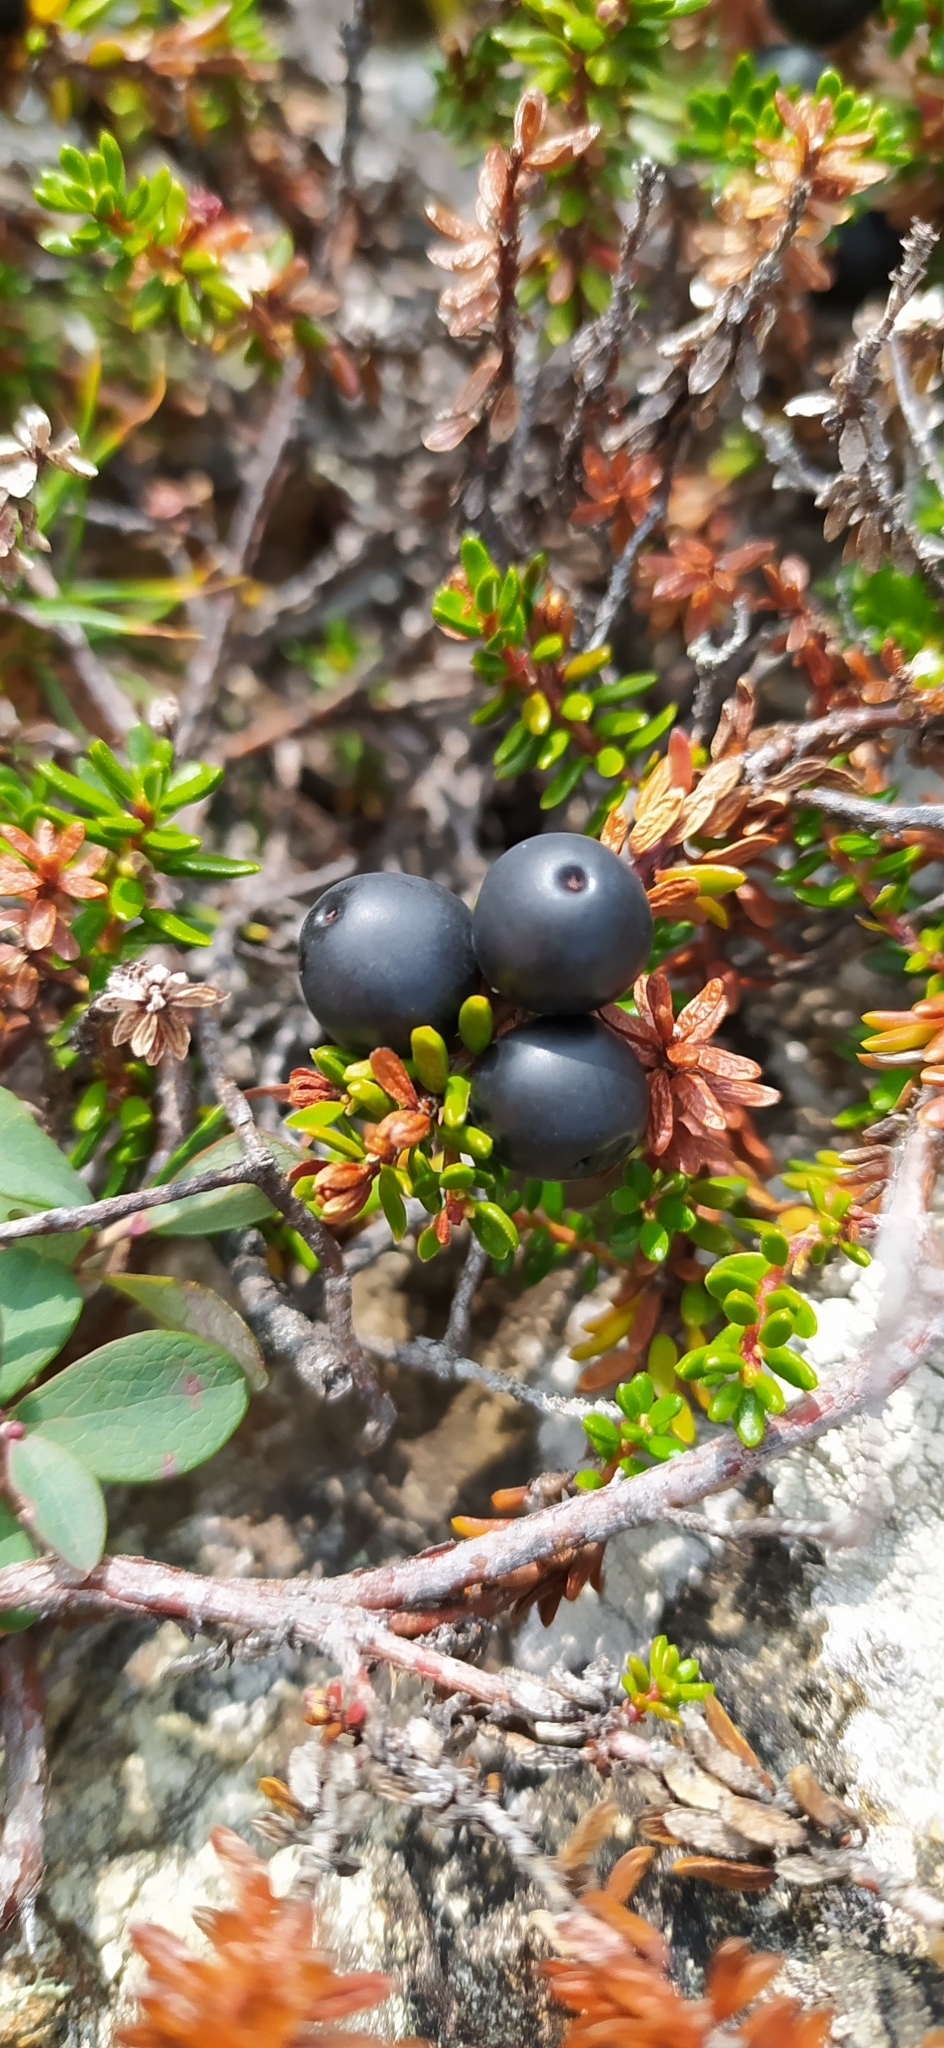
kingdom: Plantae
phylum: Tracheophyta
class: Magnoliopsida
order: Ericales
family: Ericaceae
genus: Empetrum
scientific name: Empetrum nigrum
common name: Black crowberry
